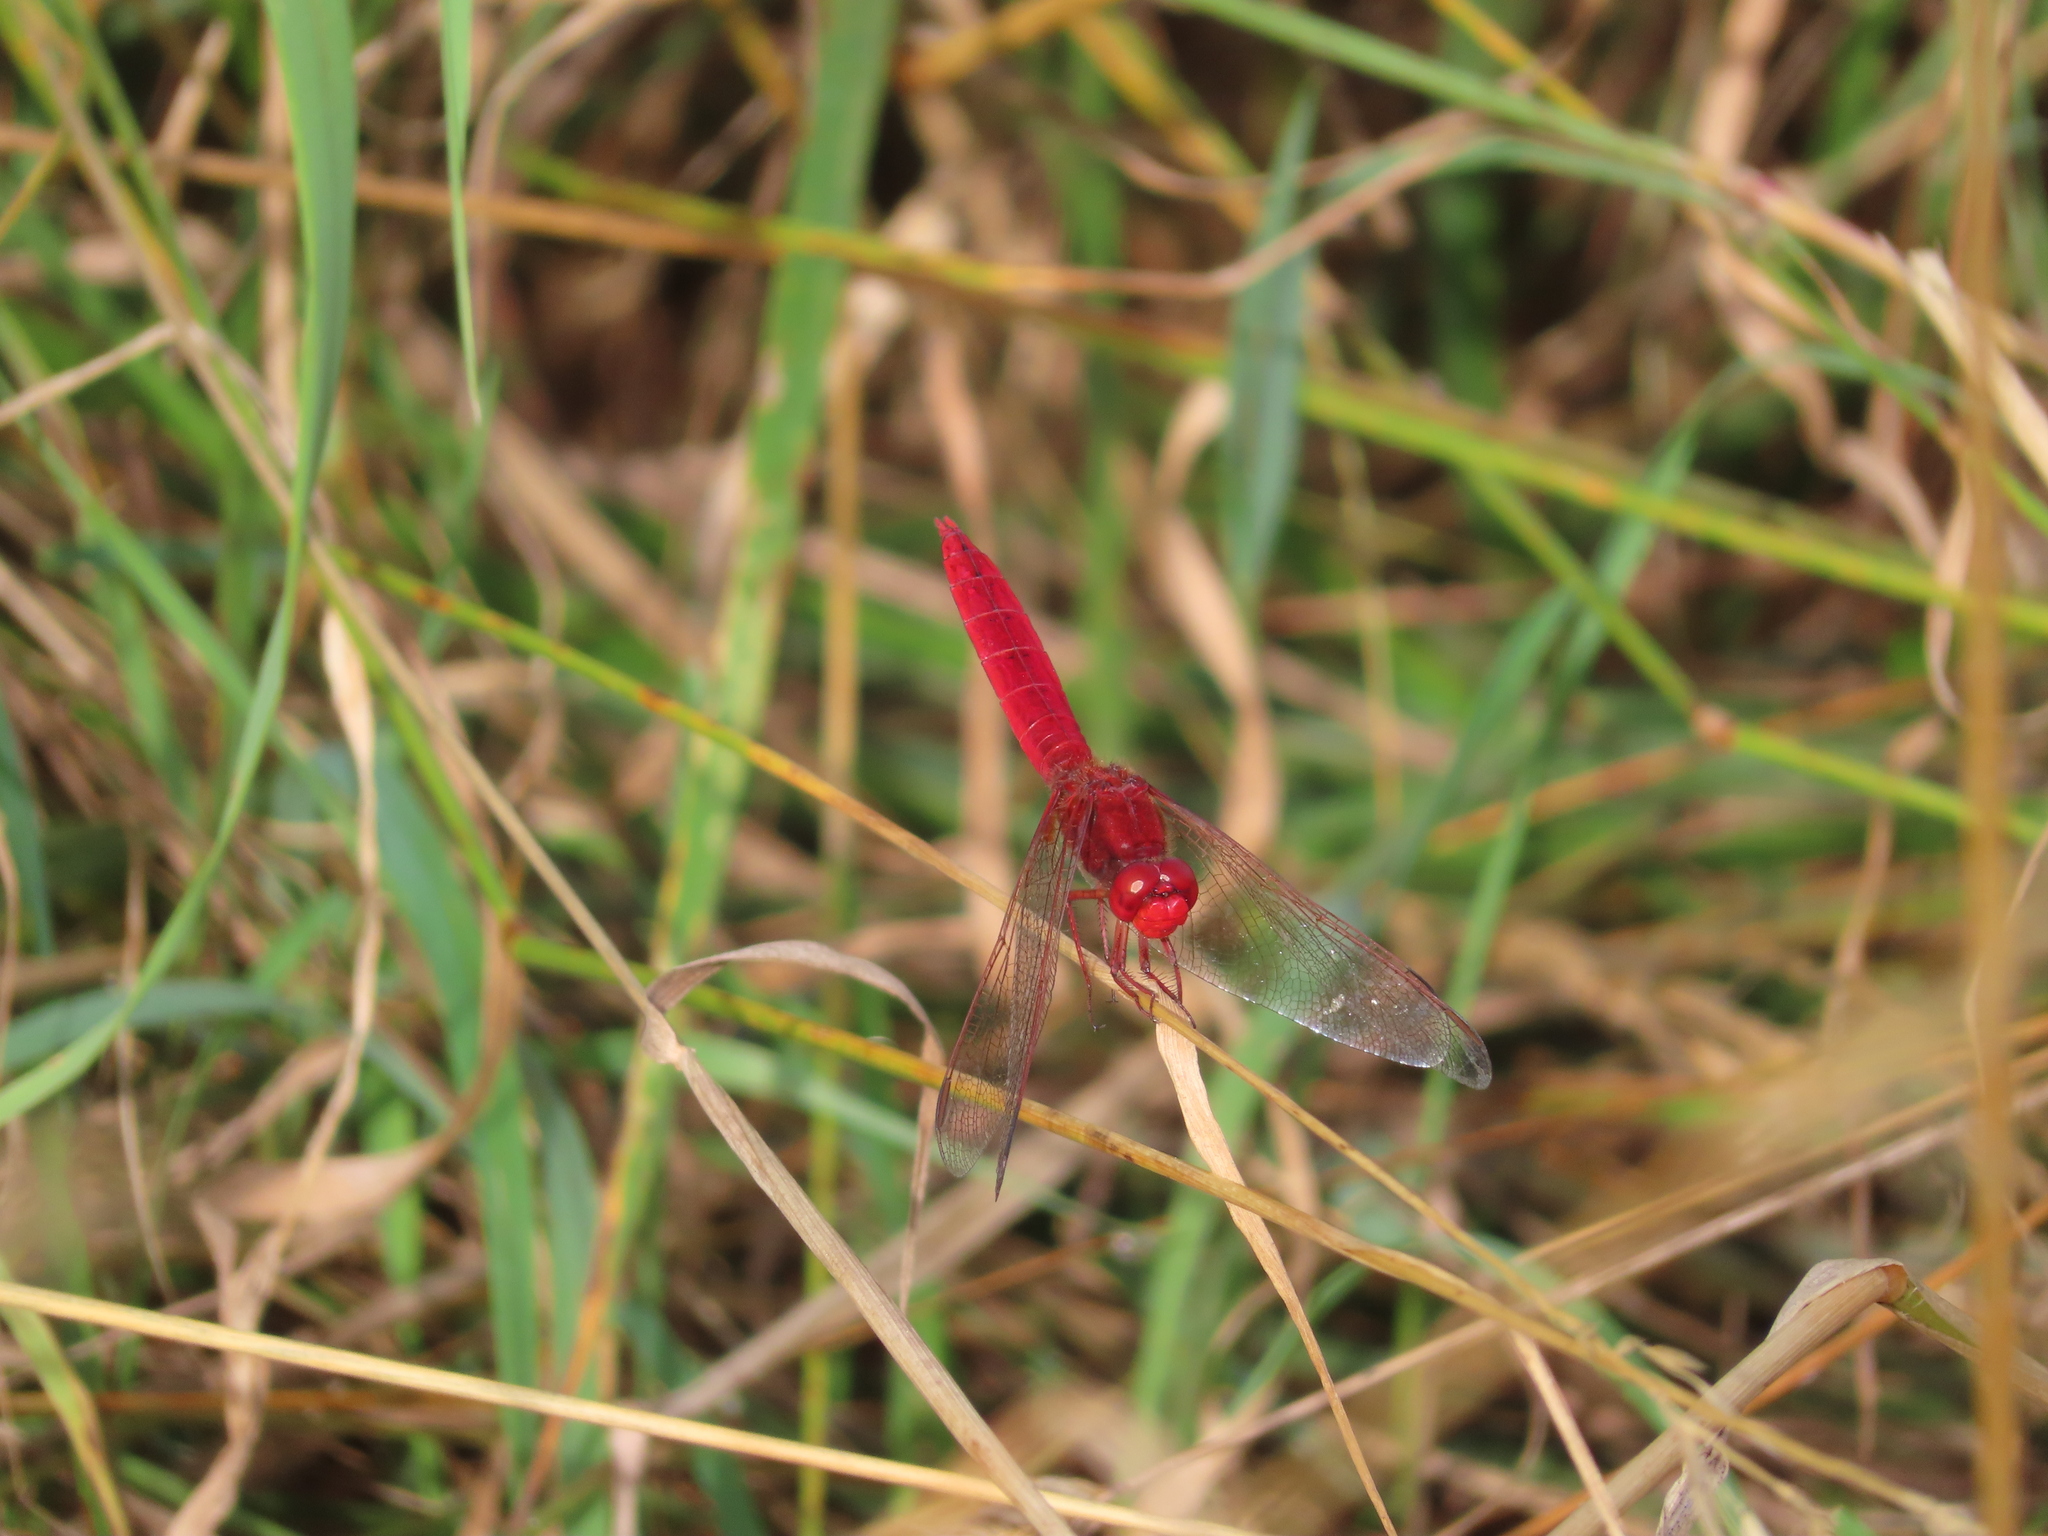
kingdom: Animalia
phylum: Arthropoda
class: Insecta
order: Odonata
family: Libellulidae
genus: Crocothemis
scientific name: Crocothemis erythraea
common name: Scarlet dragonfly
